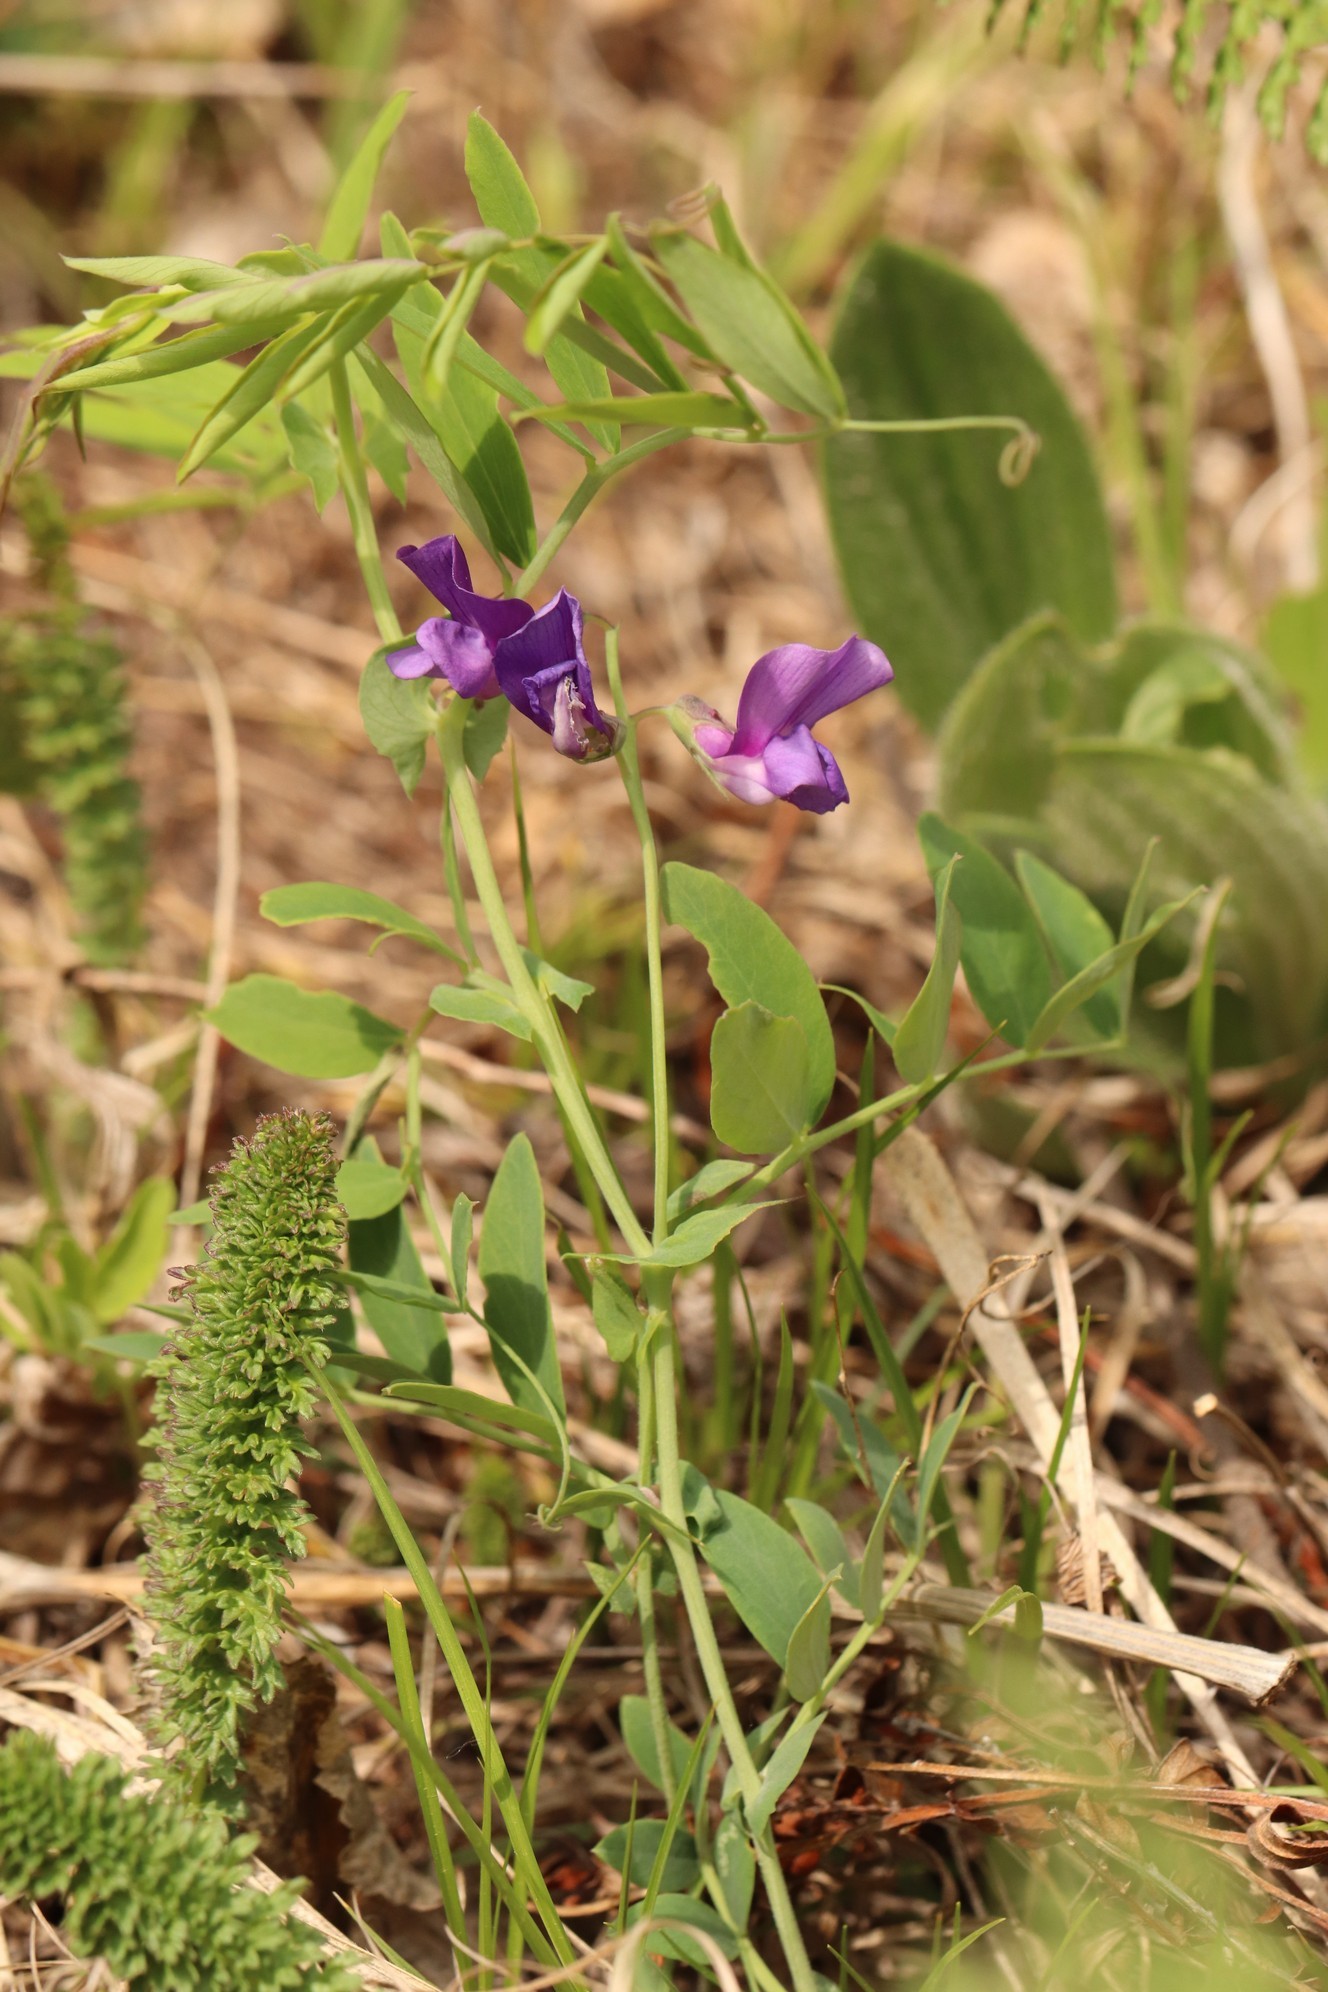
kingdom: Plantae
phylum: Tracheophyta
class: Magnoliopsida
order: Fabales
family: Fabaceae
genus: Lathyrus
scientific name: Lathyrus humilis
